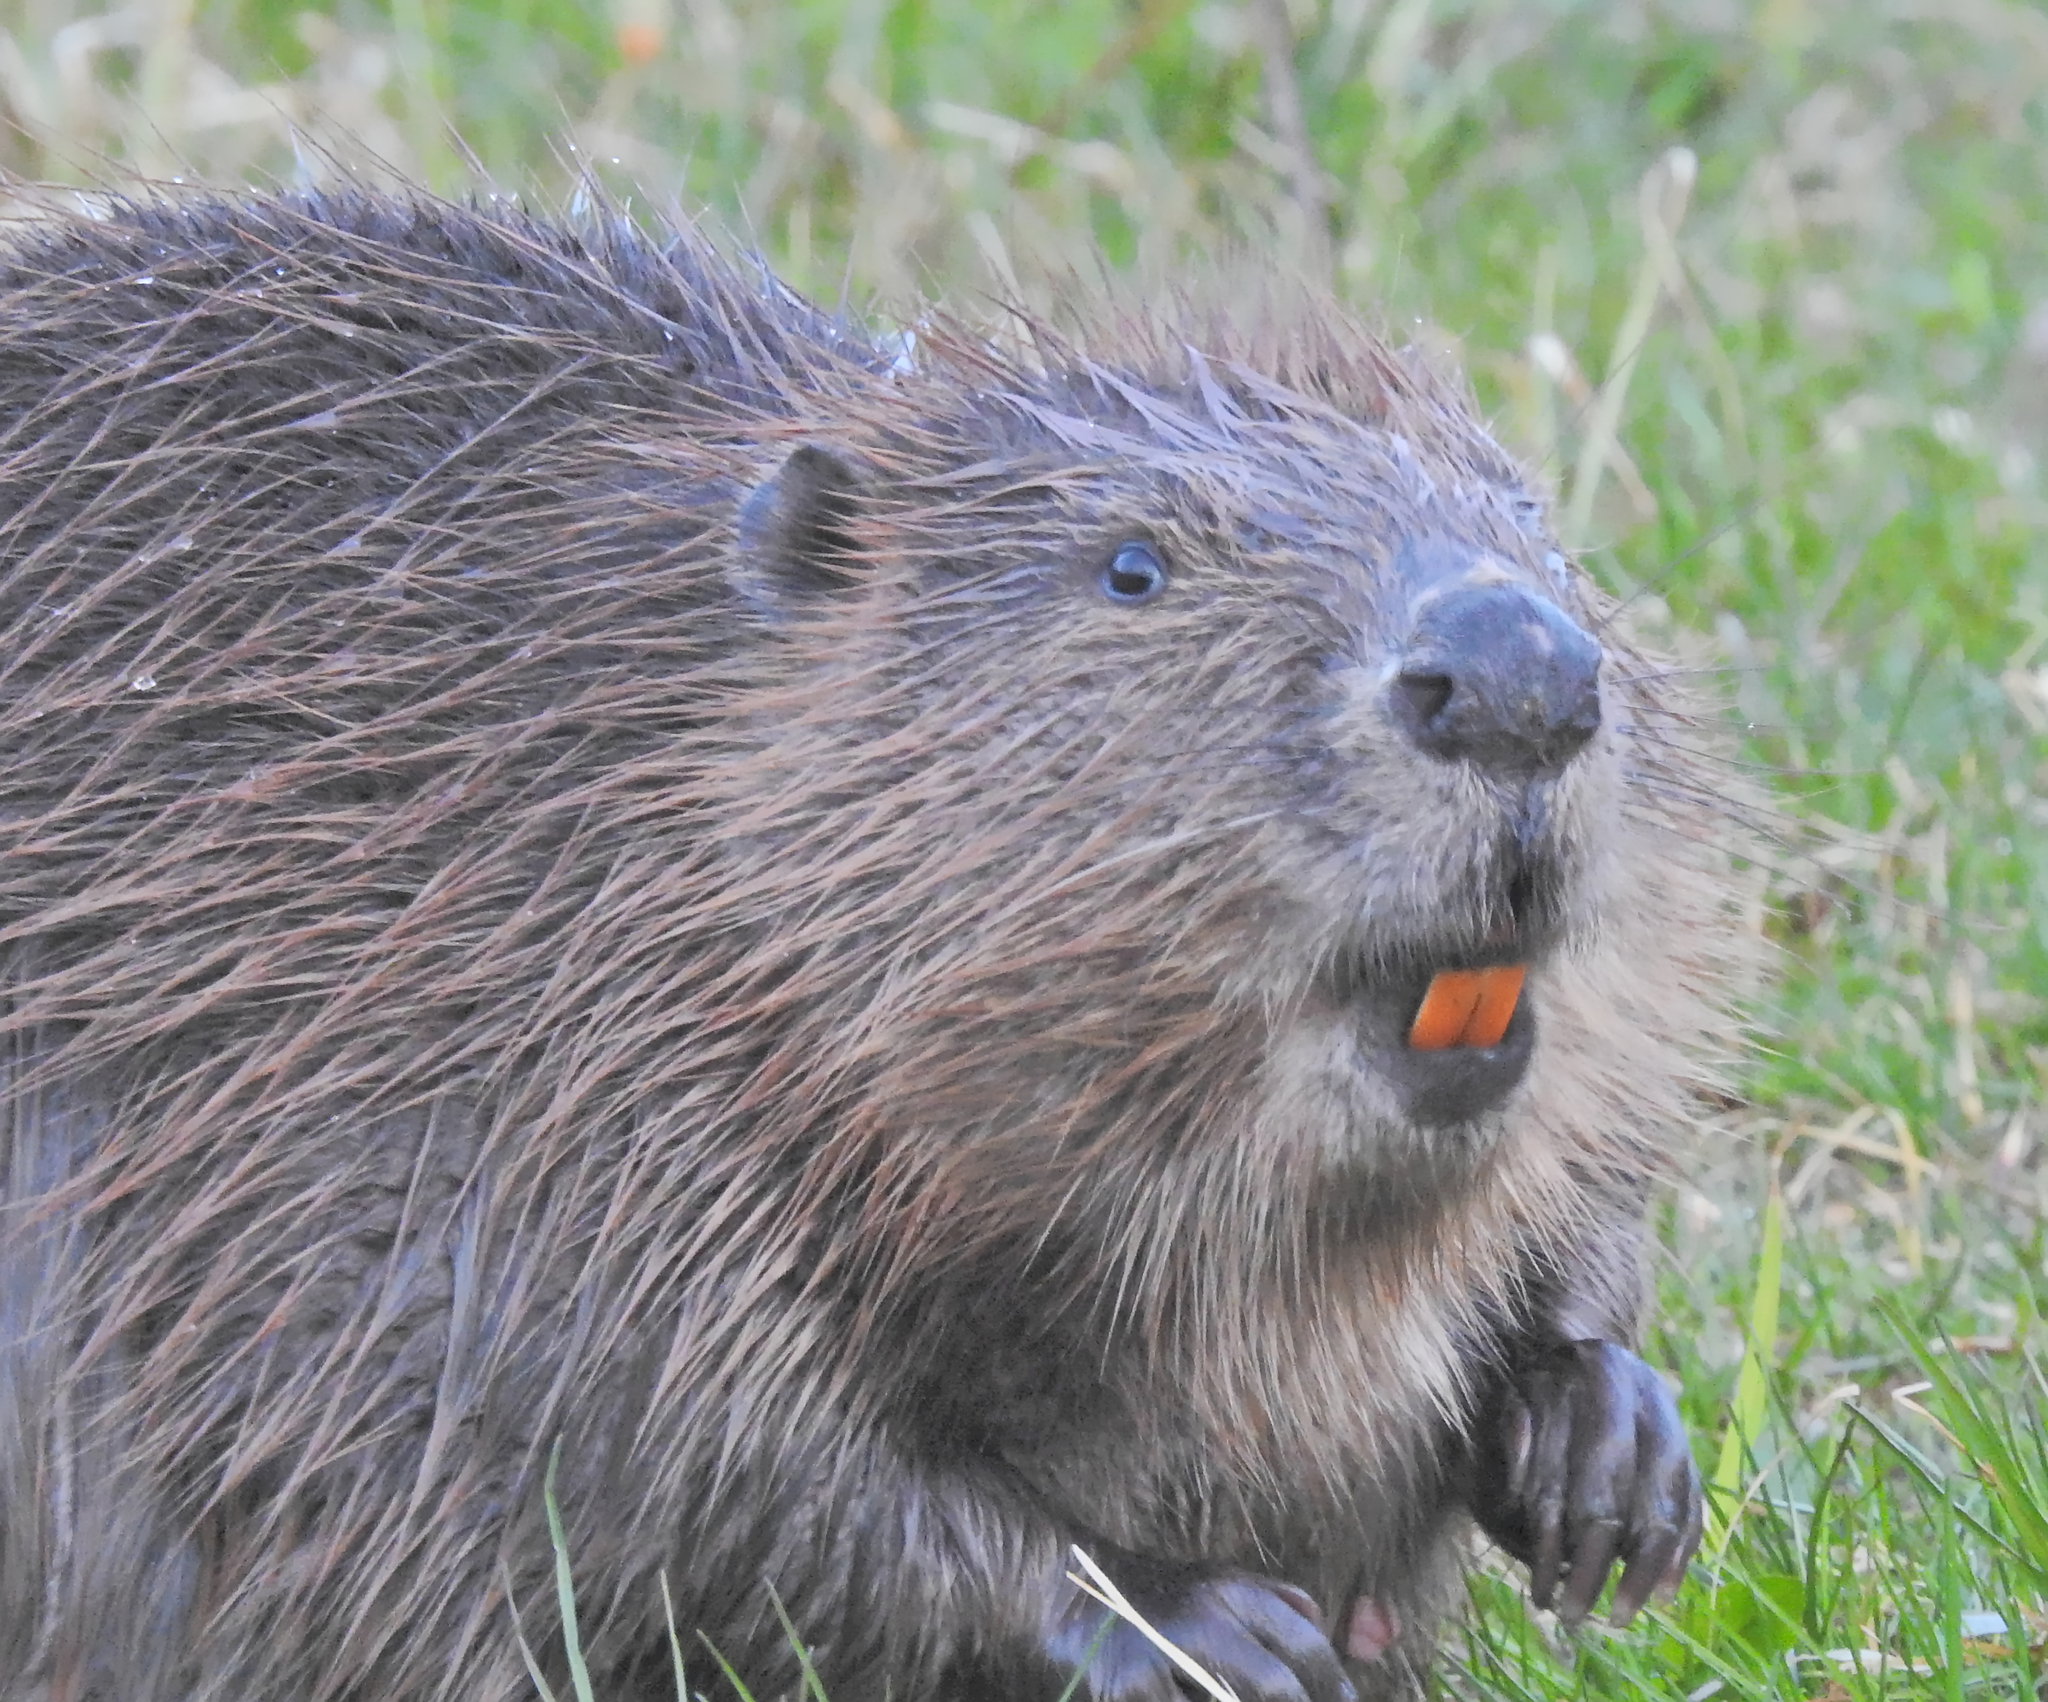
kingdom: Animalia
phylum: Chordata
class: Mammalia
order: Rodentia
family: Castoridae
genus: Castor
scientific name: Castor fiber
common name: Eurasian beaver
